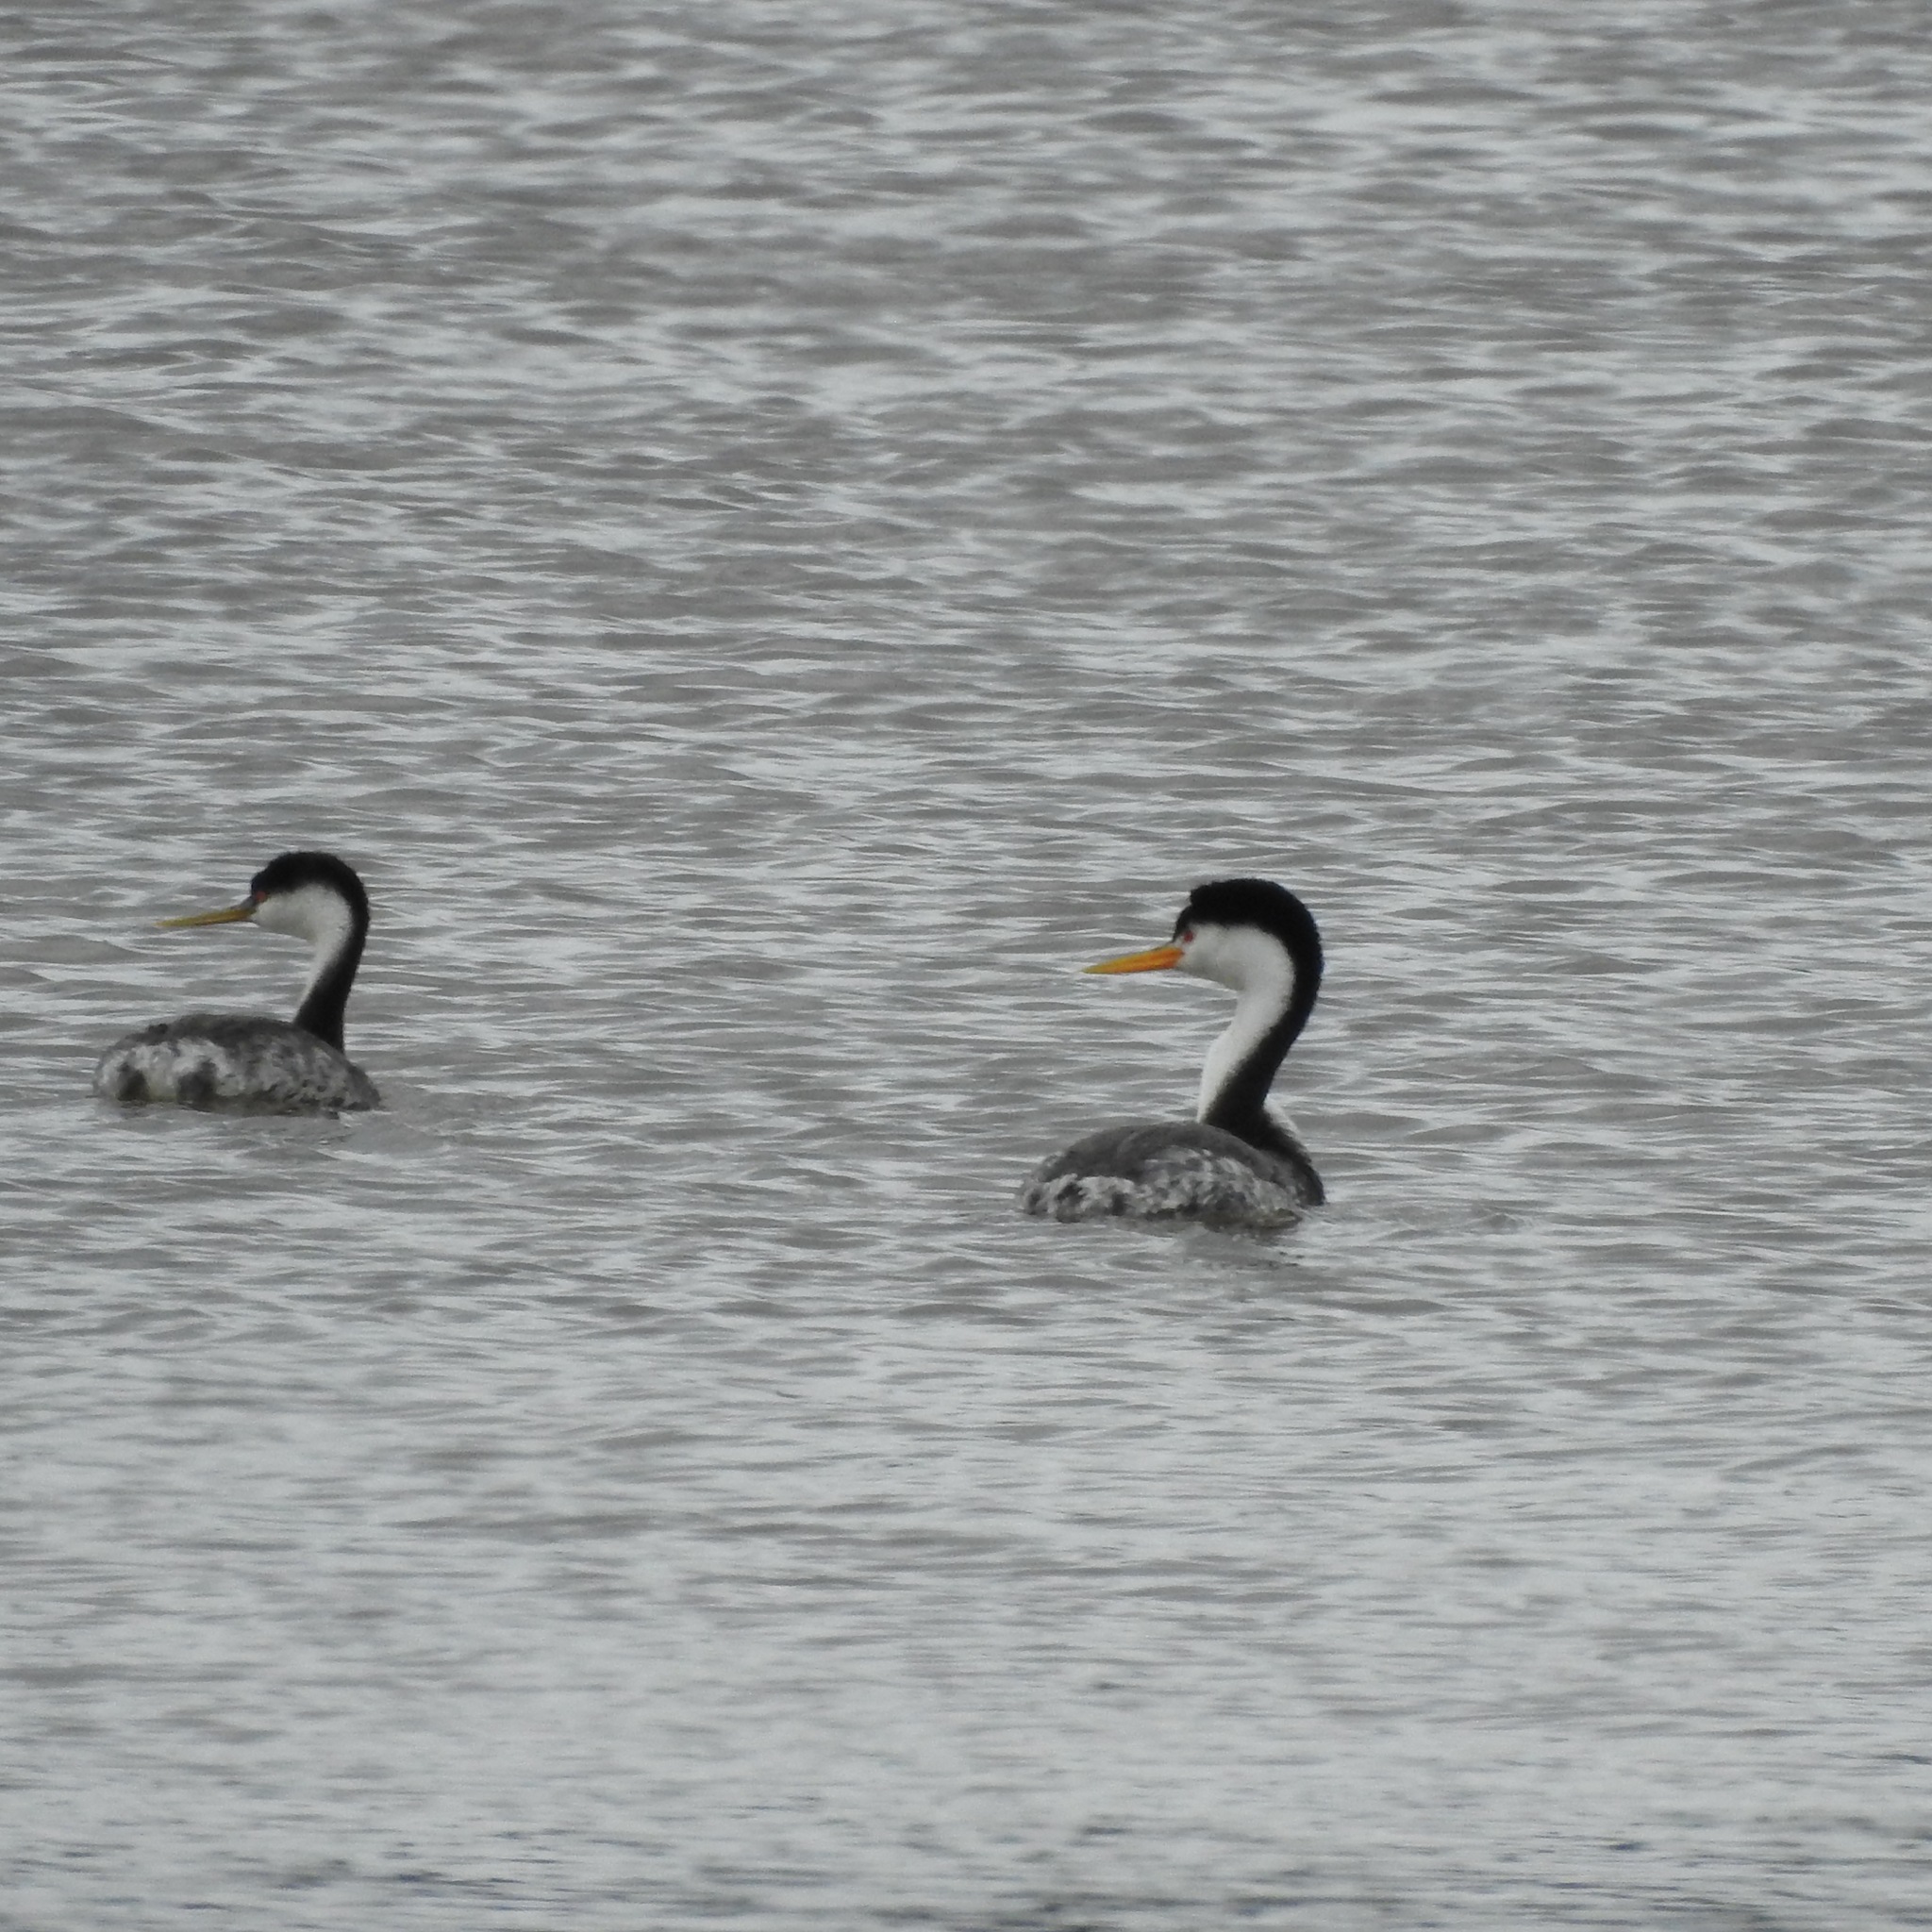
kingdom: Animalia
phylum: Chordata
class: Aves
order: Podicipediformes
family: Podicipedidae
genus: Aechmophorus
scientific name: Aechmophorus clarkii
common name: Clark's grebe
